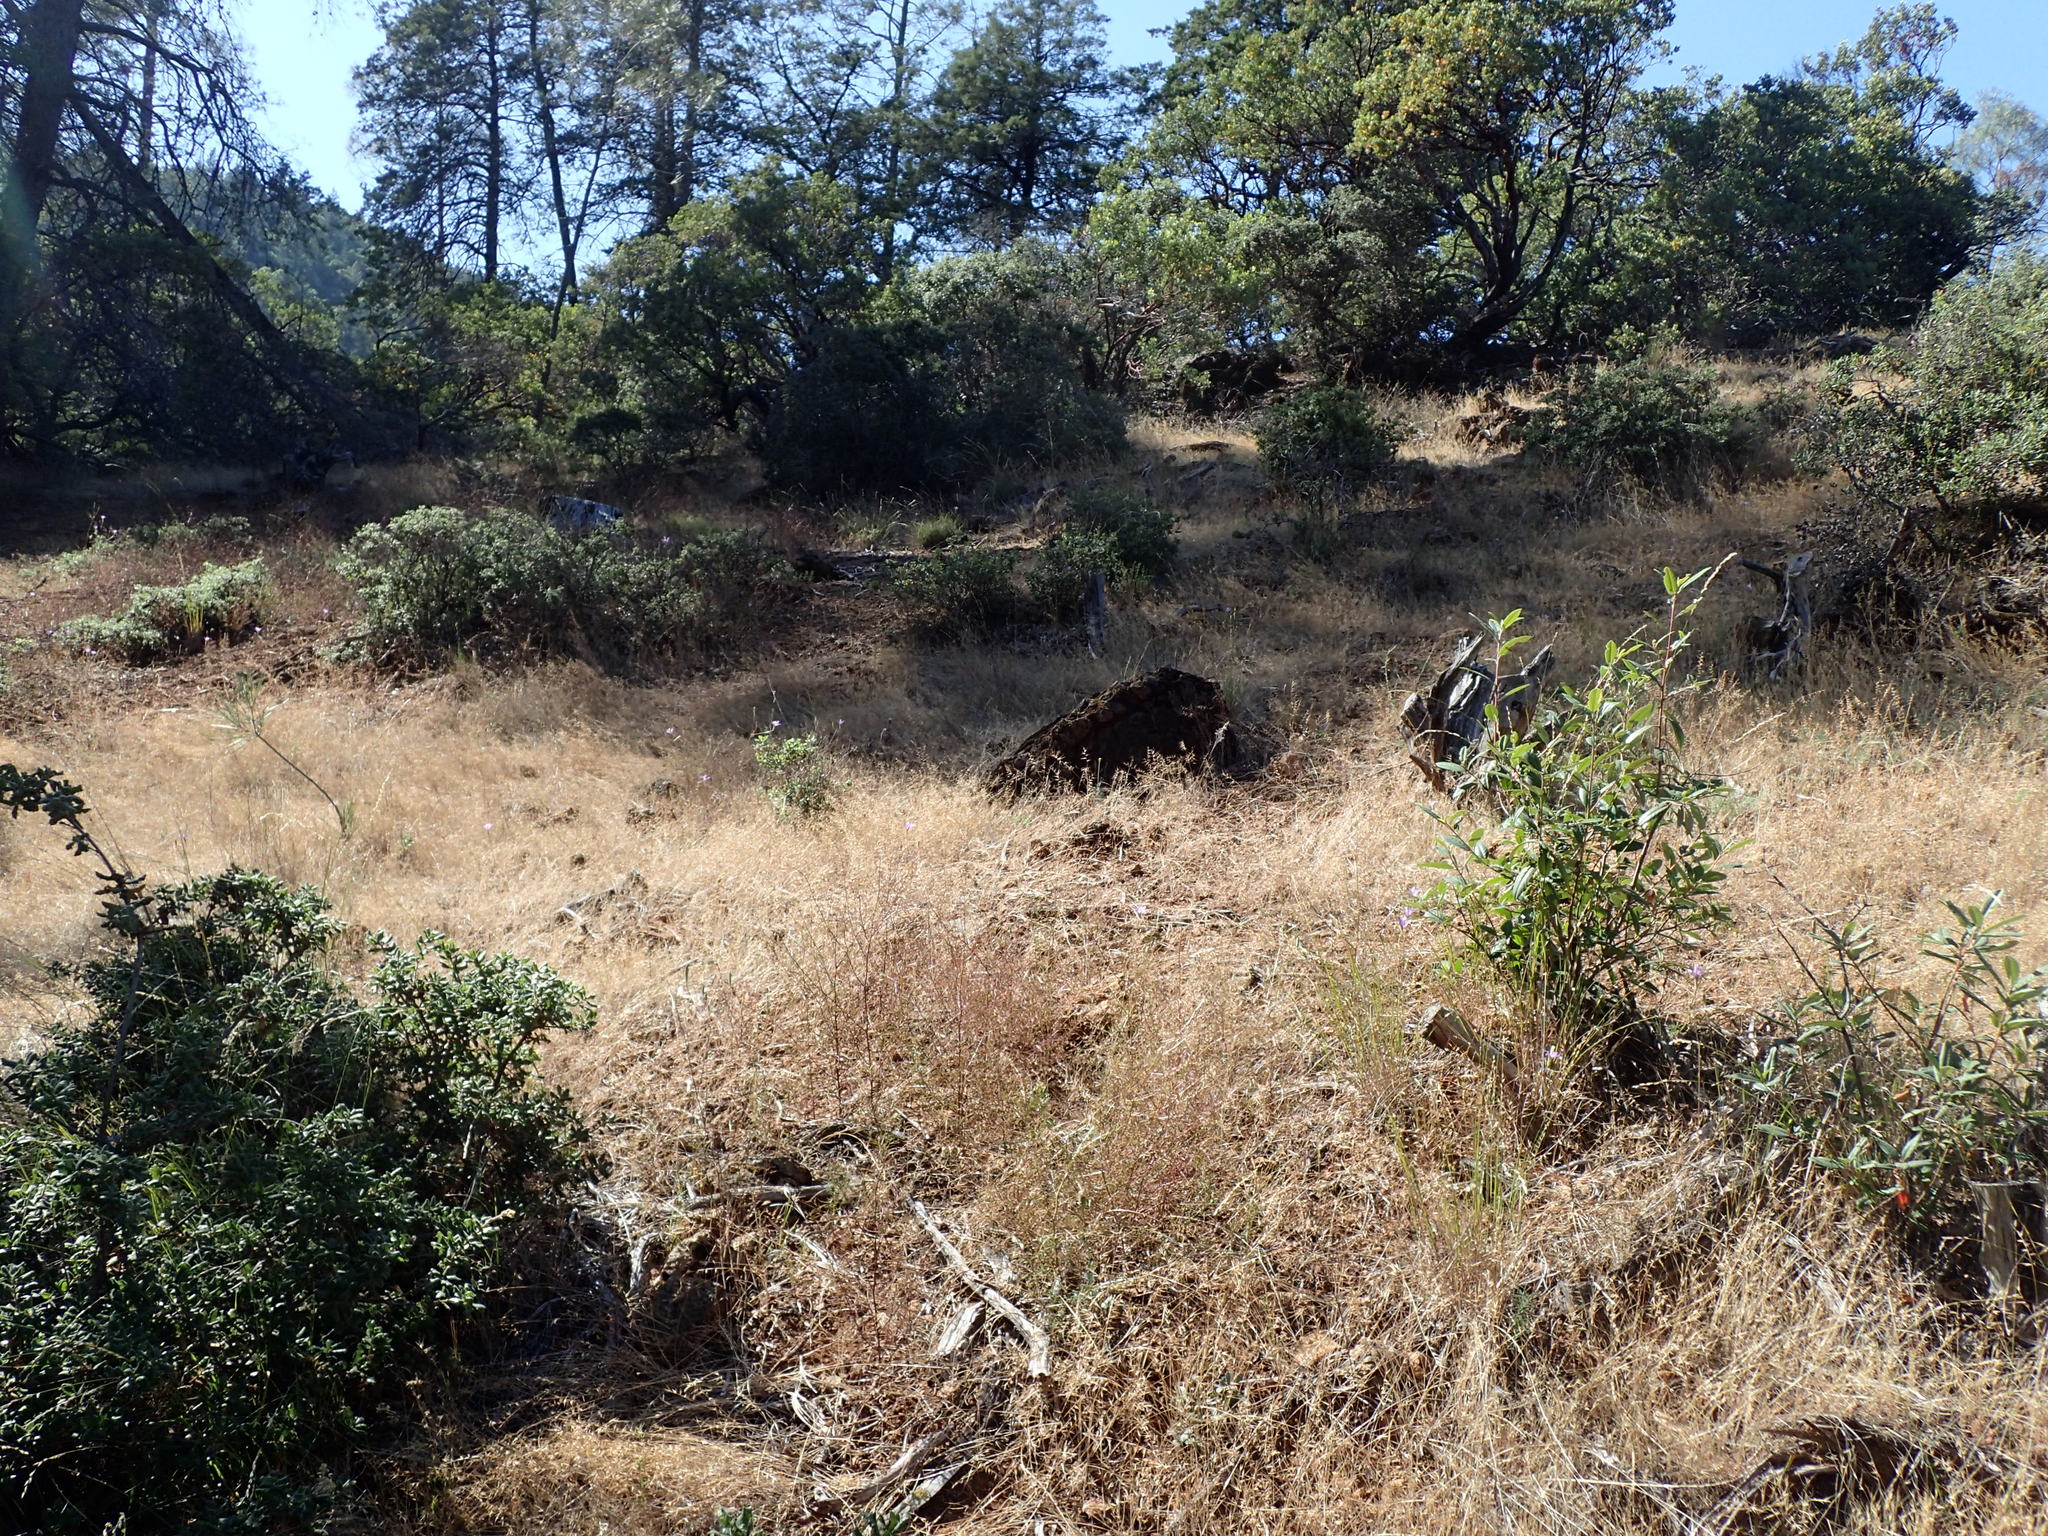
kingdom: Plantae
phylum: Tracheophyta
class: Liliopsida
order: Asparagales
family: Asparagaceae
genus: Brodiaea
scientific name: Brodiaea californica
